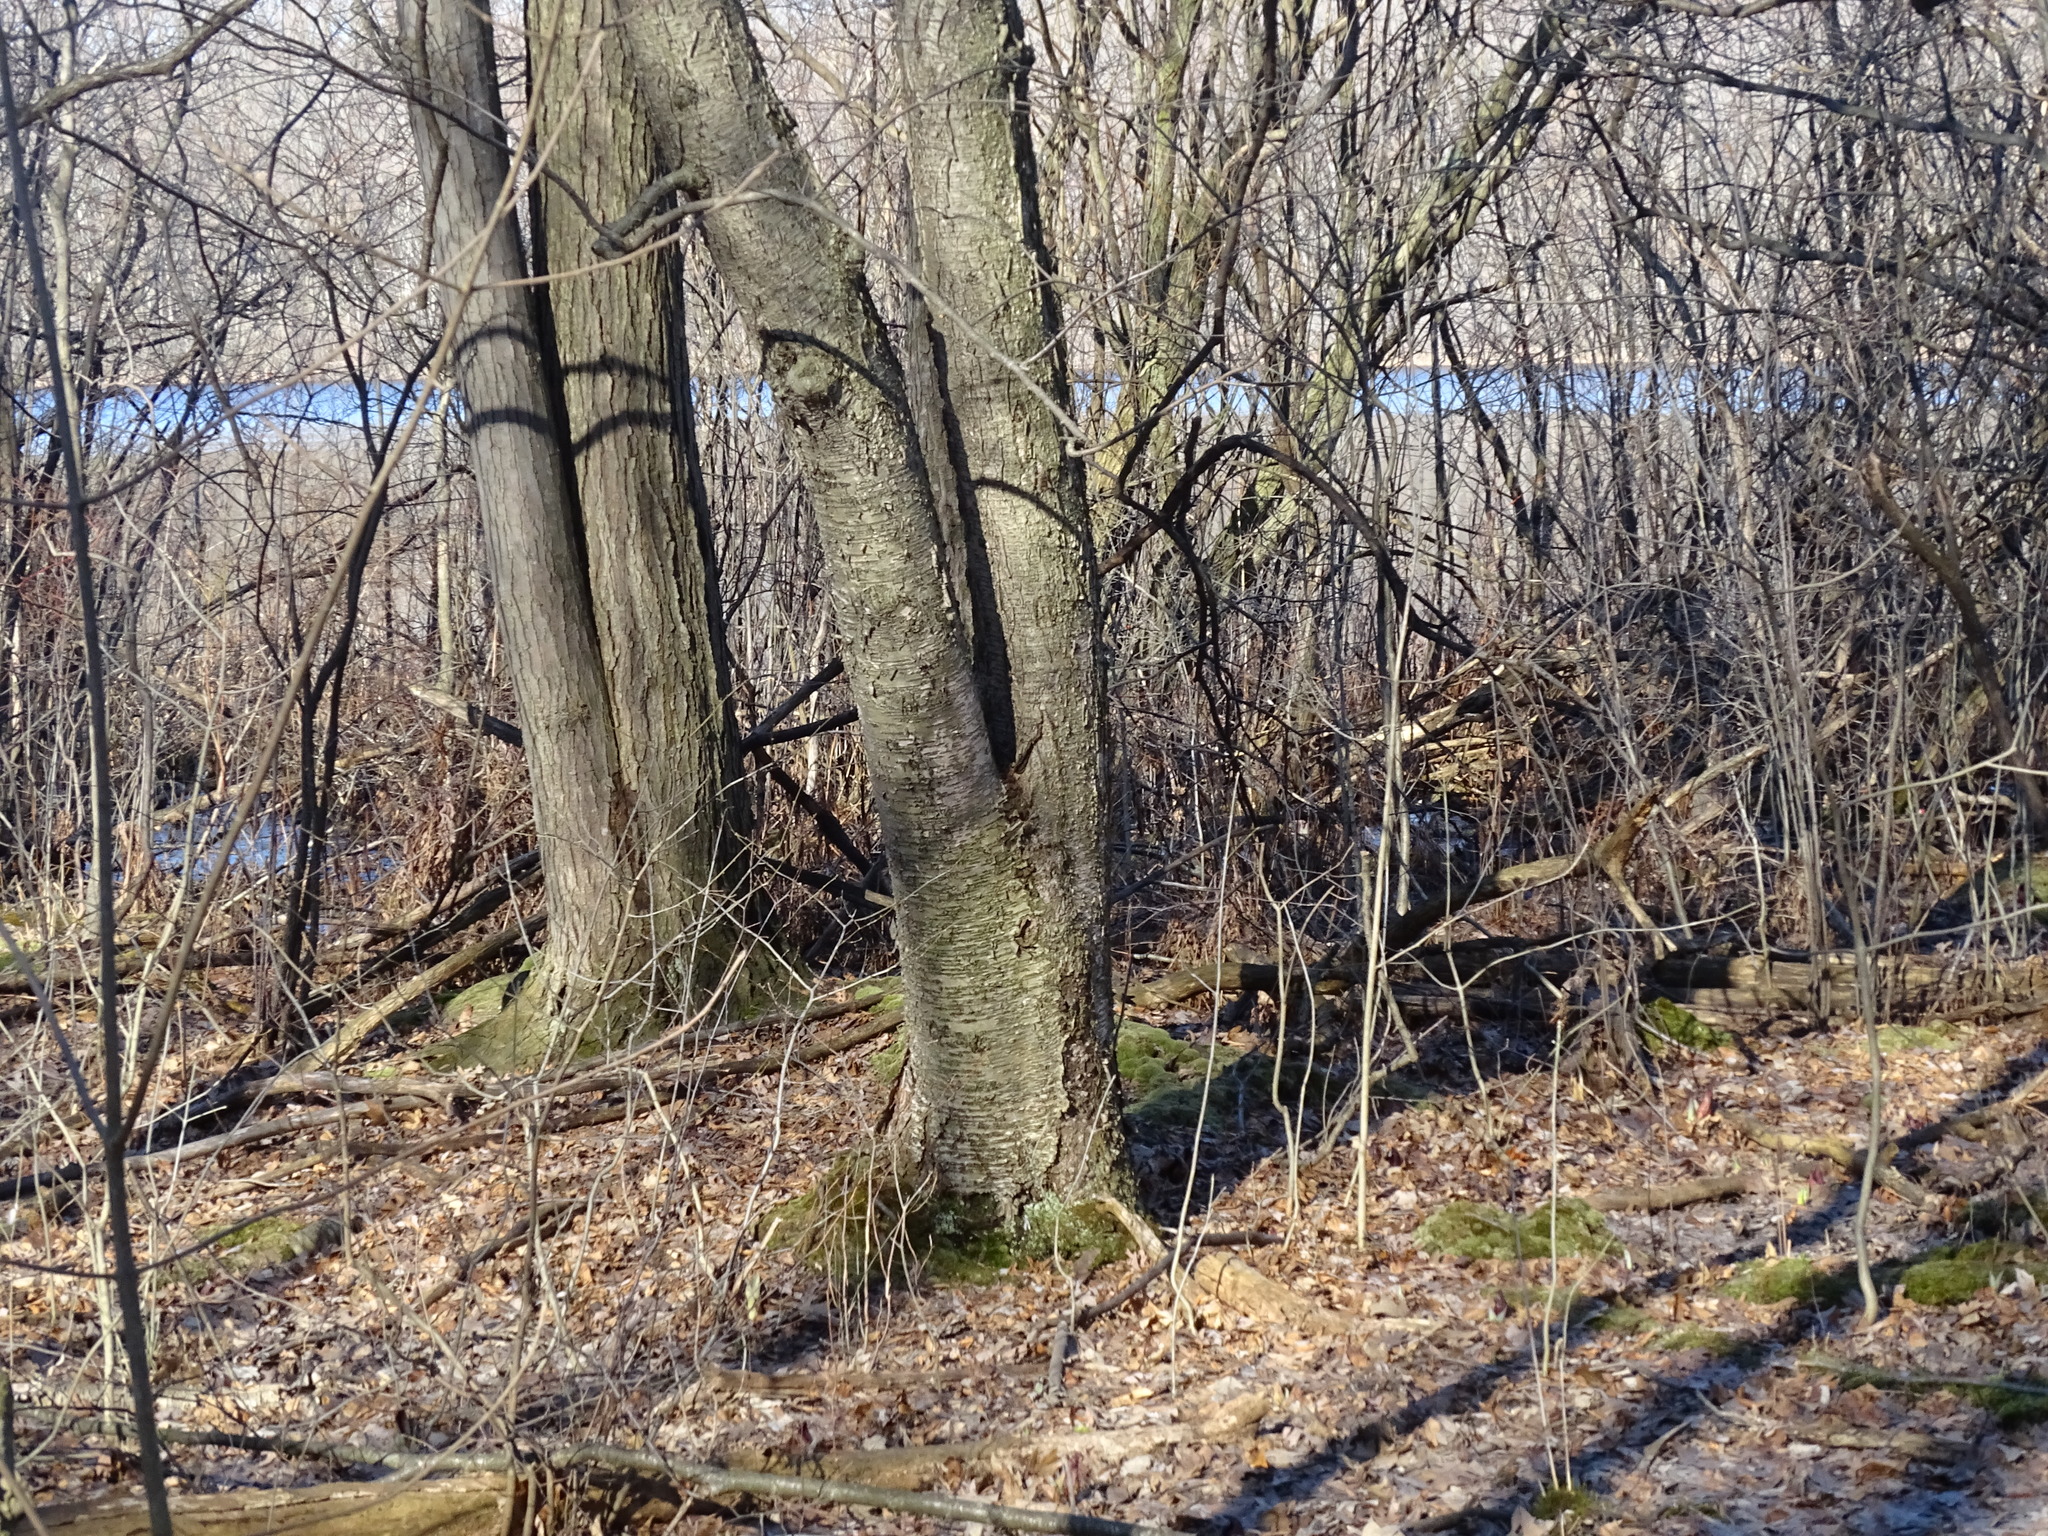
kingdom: Plantae
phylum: Tracheophyta
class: Magnoliopsida
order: Fagales
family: Betulaceae
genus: Betula
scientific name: Betula alleghaniensis
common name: Yellow birch
